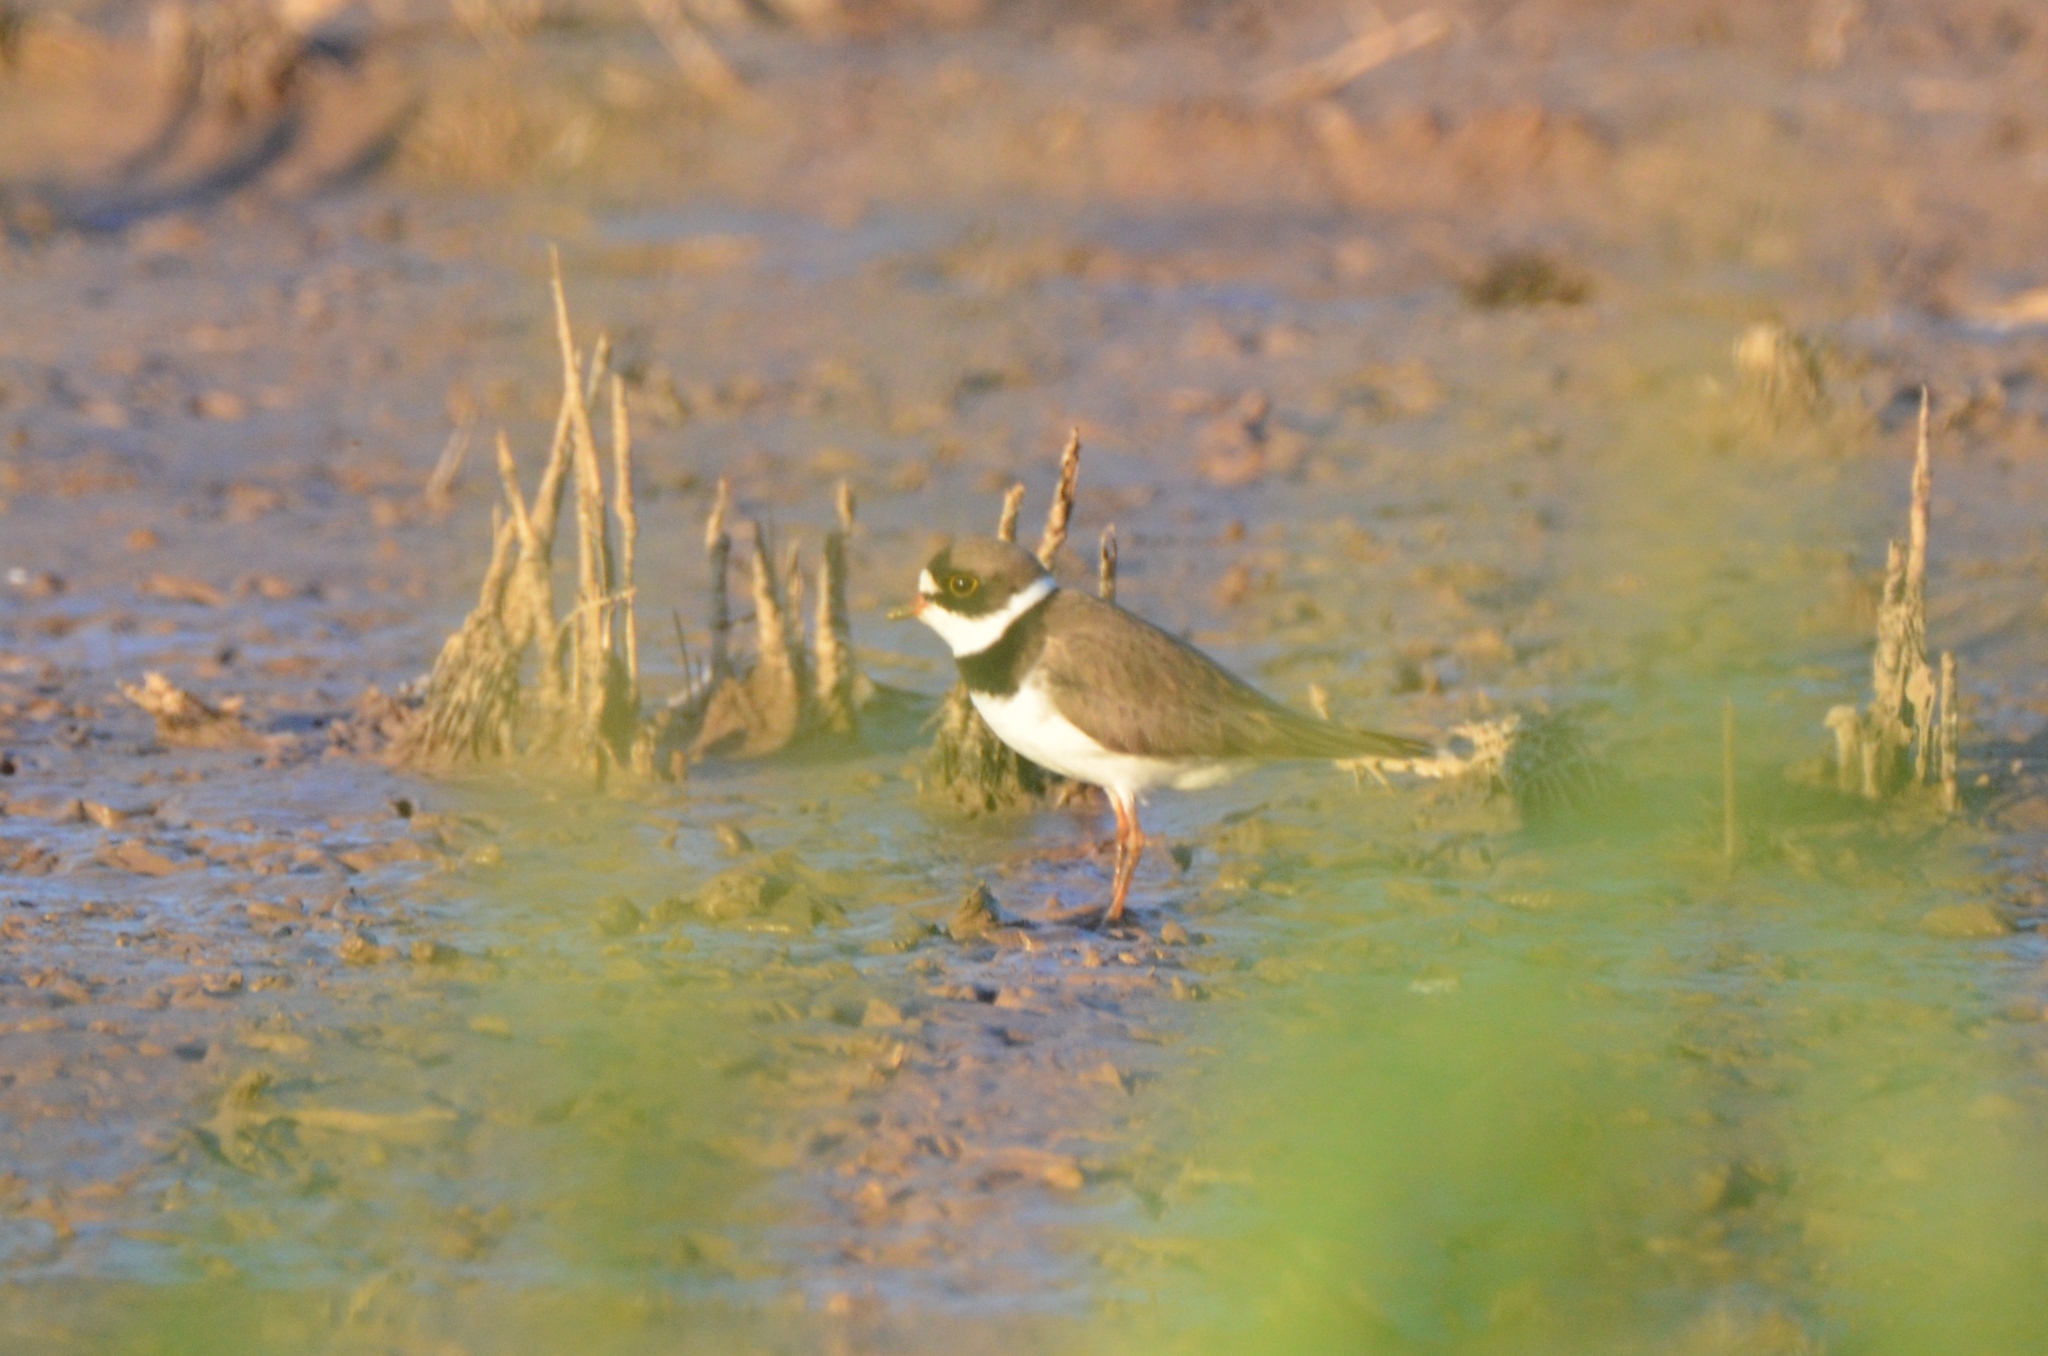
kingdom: Animalia
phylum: Chordata
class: Aves
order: Charadriiformes
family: Charadriidae
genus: Charadrius
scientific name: Charadrius semipalmatus
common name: Semipalmated plover
